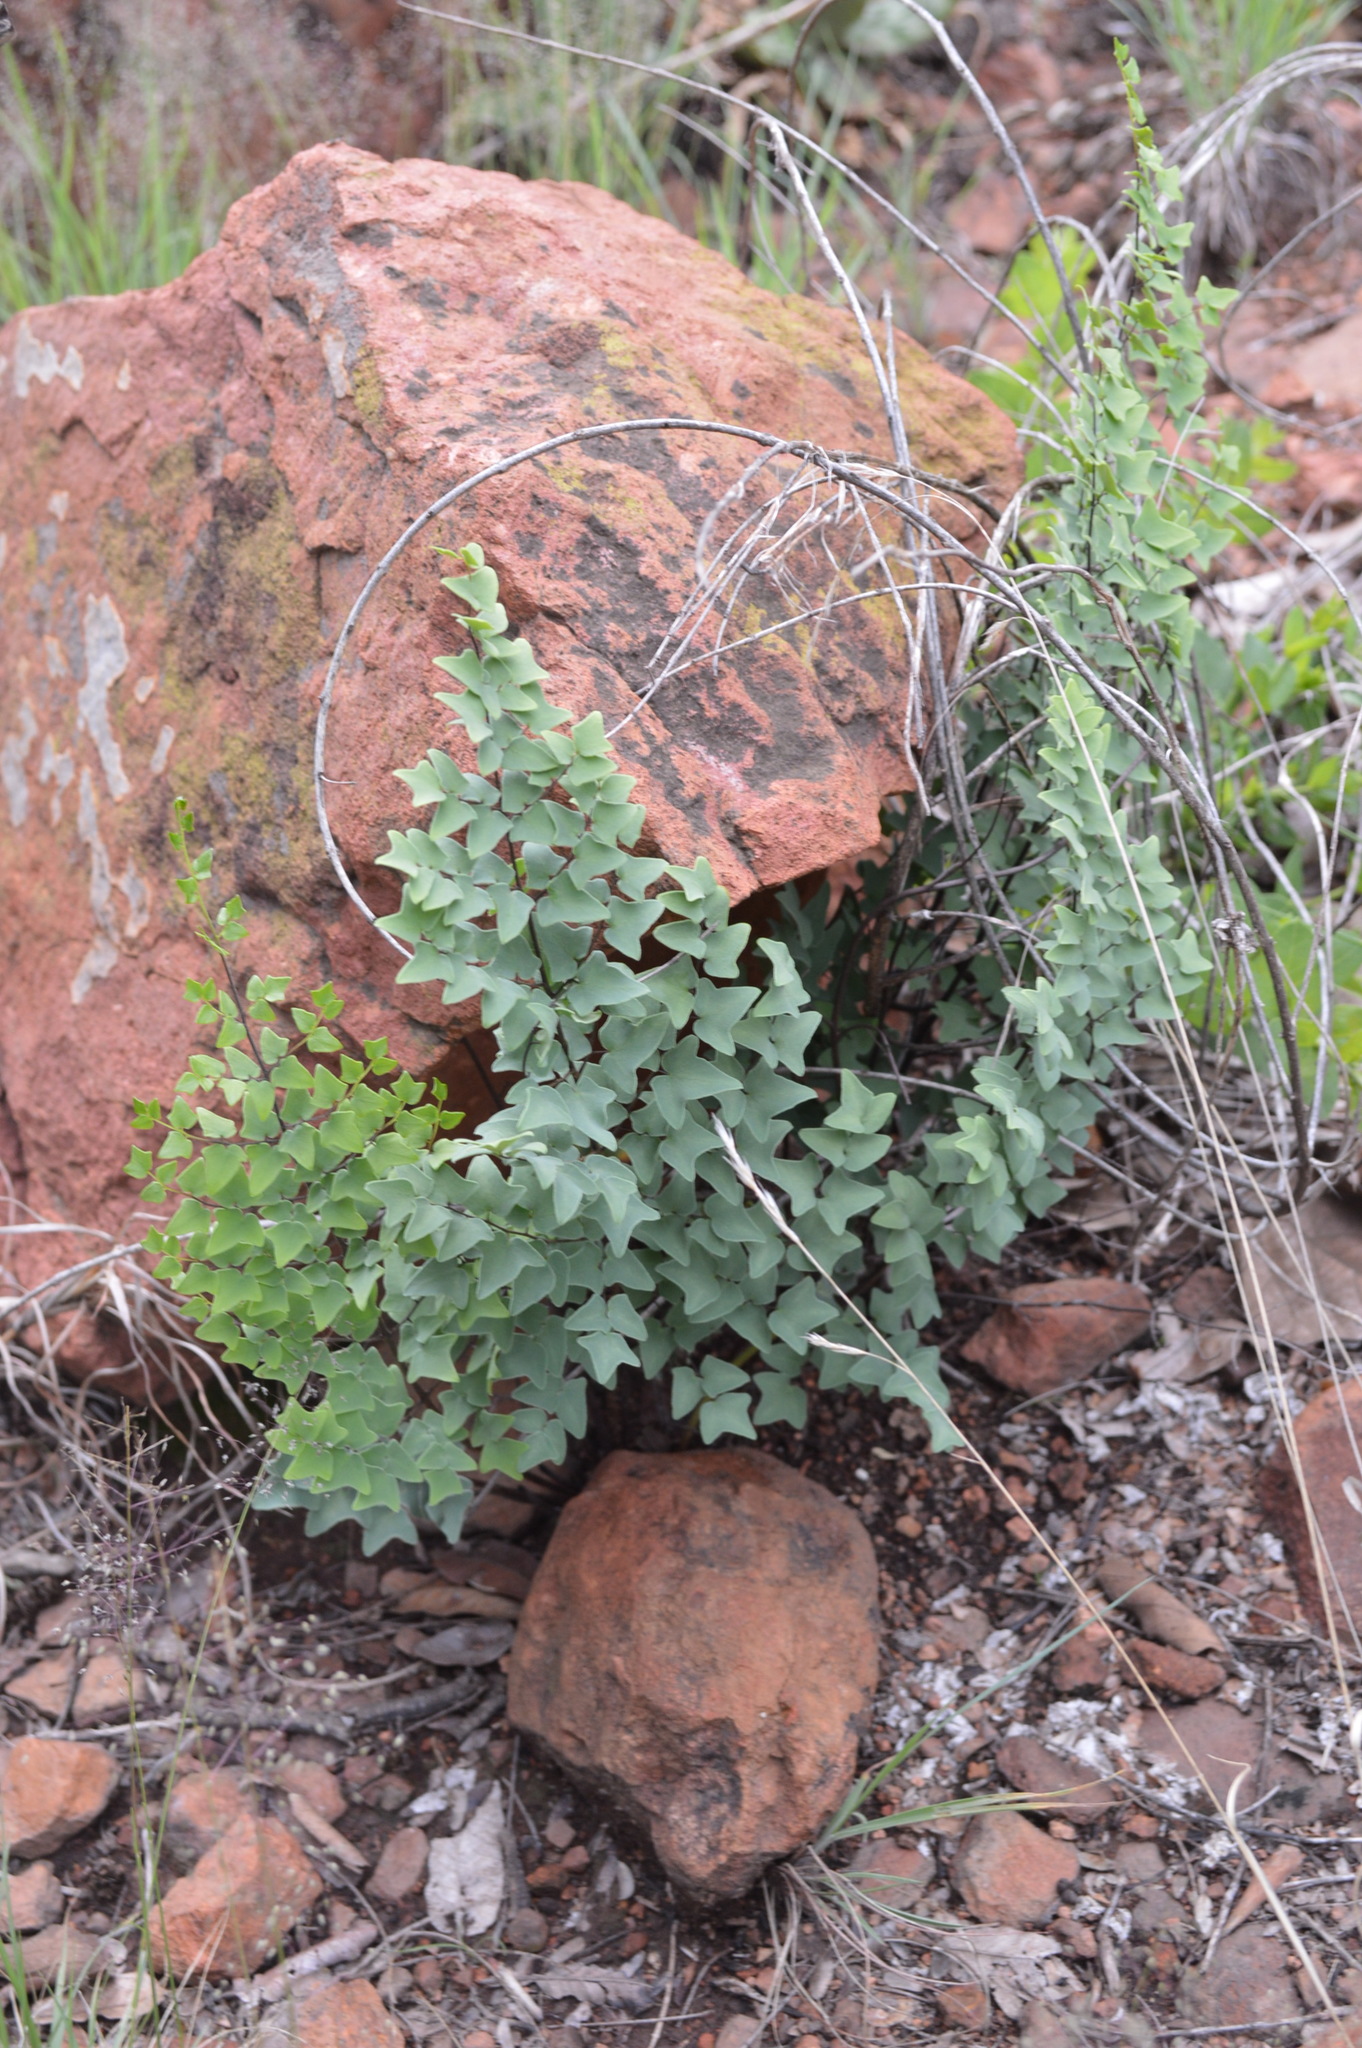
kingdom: Plantae
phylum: Tracheophyta
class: Polypodiopsida
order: Polypodiales
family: Pteridaceae
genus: Pellaea
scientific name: Pellaea calomelanos
